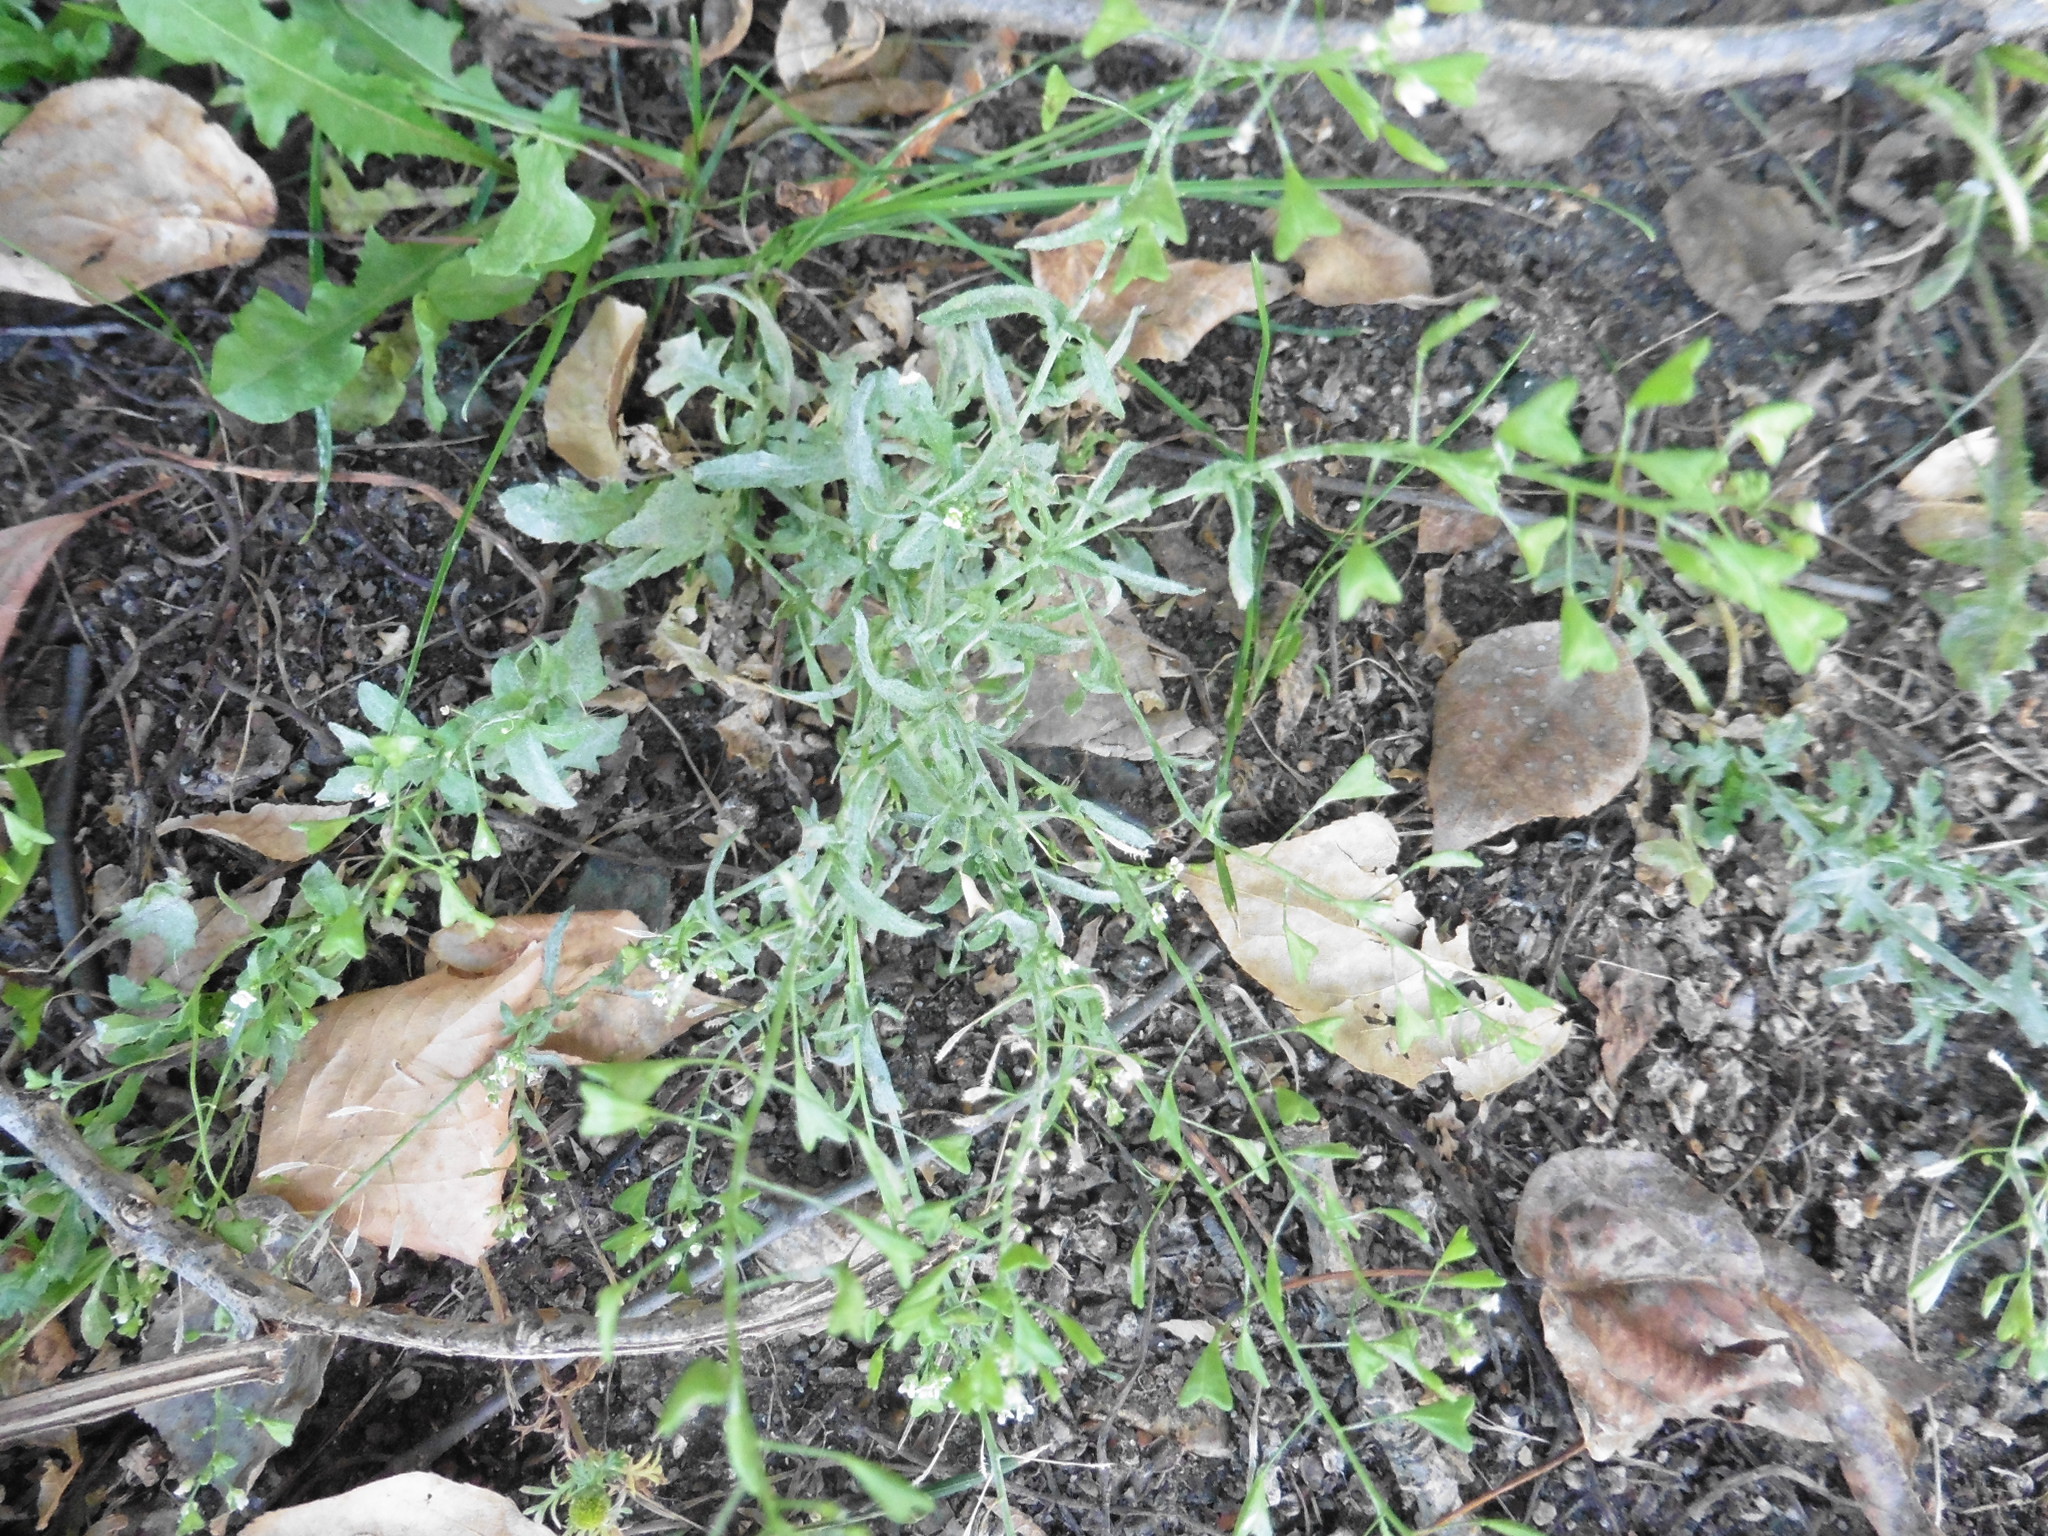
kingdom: Plantae
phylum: Tracheophyta
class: Magnoliopsida
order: Brassicales
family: Brassicaceae
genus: Capsella
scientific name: Capsella bursa-pastoris
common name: Shepherd's purse
